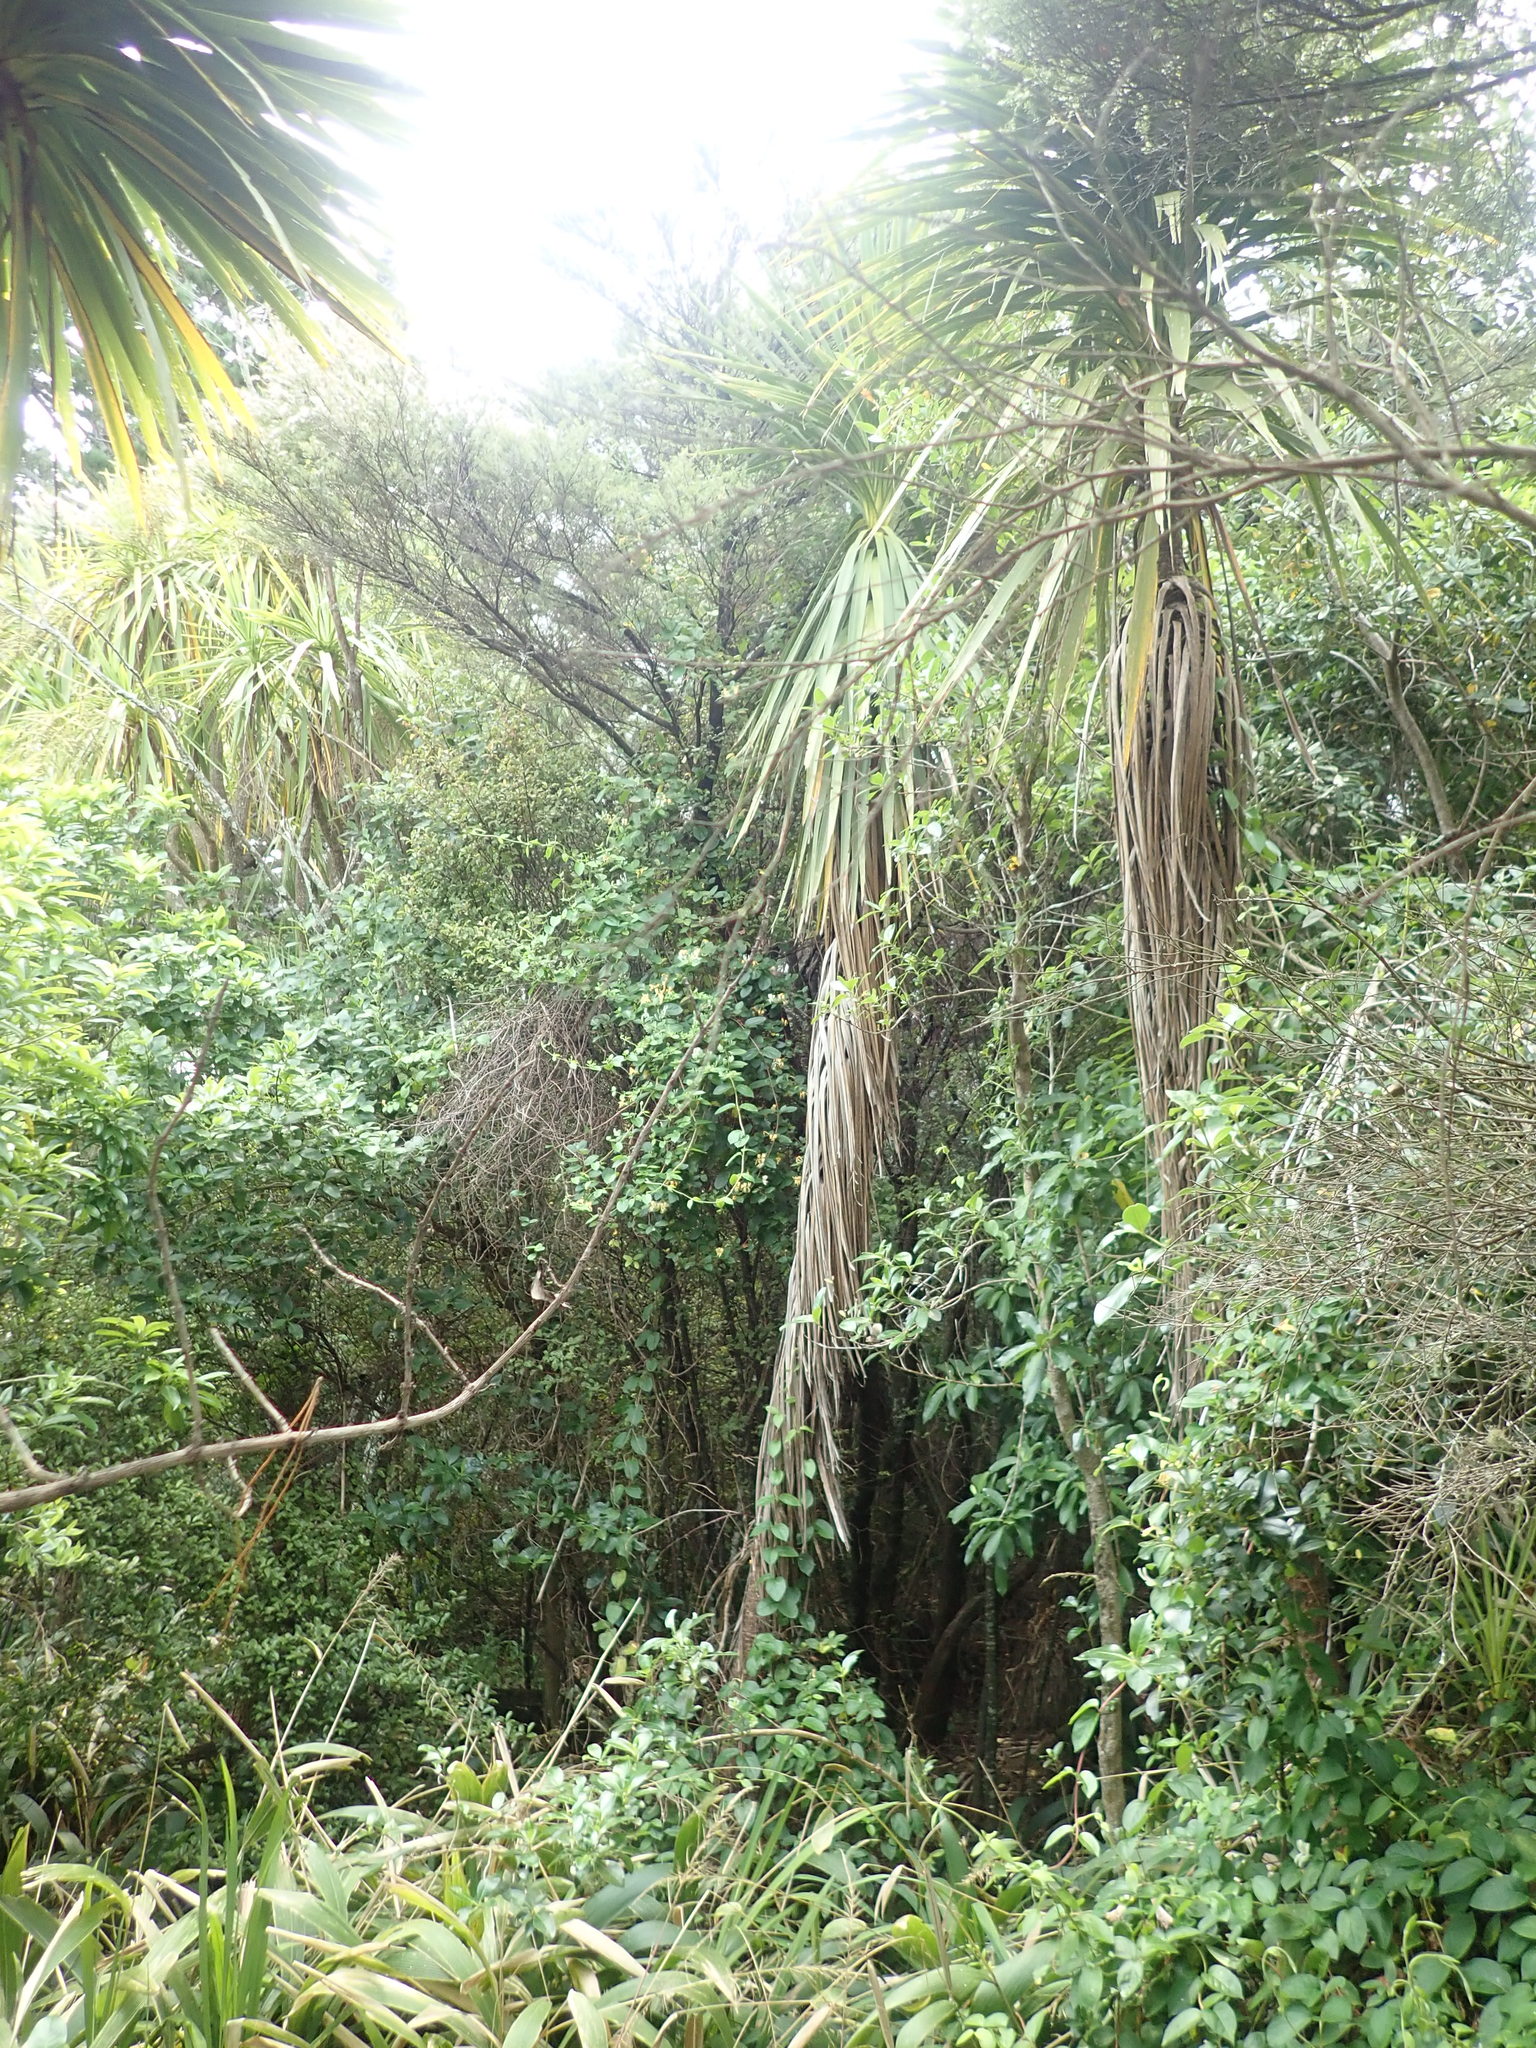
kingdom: Plantae
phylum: Tracheophyta
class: Magnoliopsida
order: Dipsacales
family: Caprifoliaceae
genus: Lonicera
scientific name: Lonicera japonica
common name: Japanese honeysuckle
